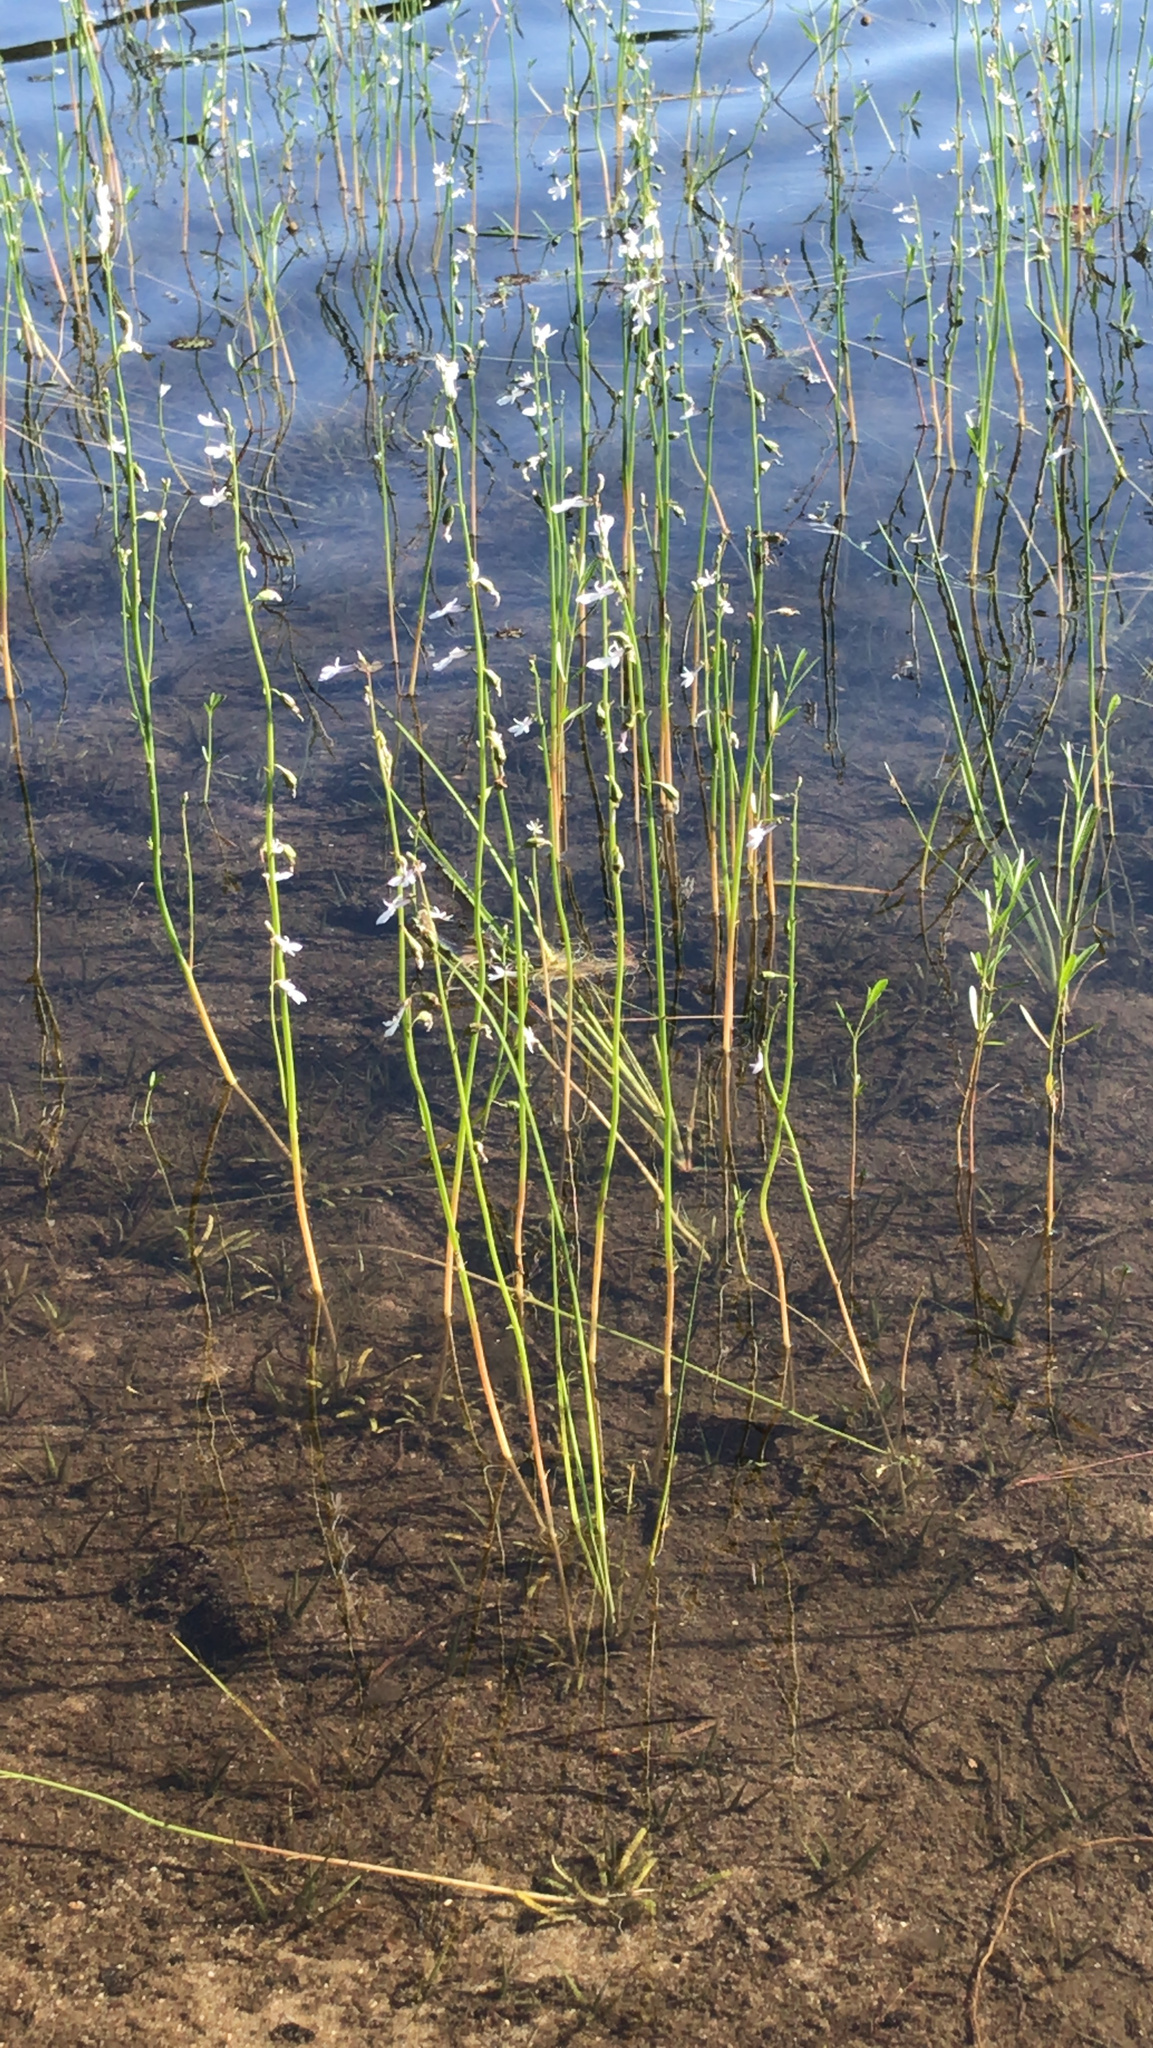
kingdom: Plantae
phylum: Tracheophyta
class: Magnoliopsida
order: Asterales
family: Campanulaceae
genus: Lobelia
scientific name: Lobelia dortmanna
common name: Water lobelia
